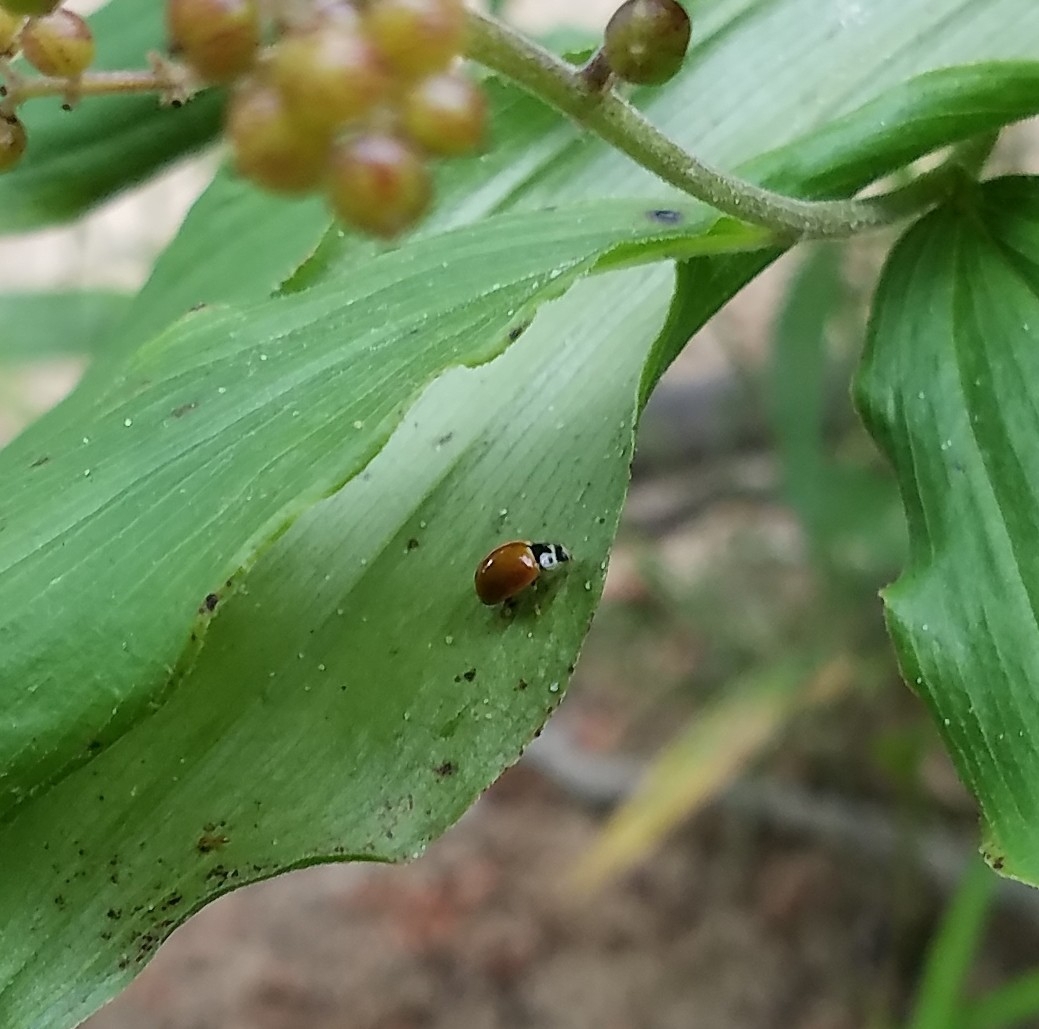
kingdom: Animalia
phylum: Arthropoda
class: Insecta
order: Coleoptera
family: Coccinellidae
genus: Cycloneda
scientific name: Cycloneda munda
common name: Polished lady beetle
